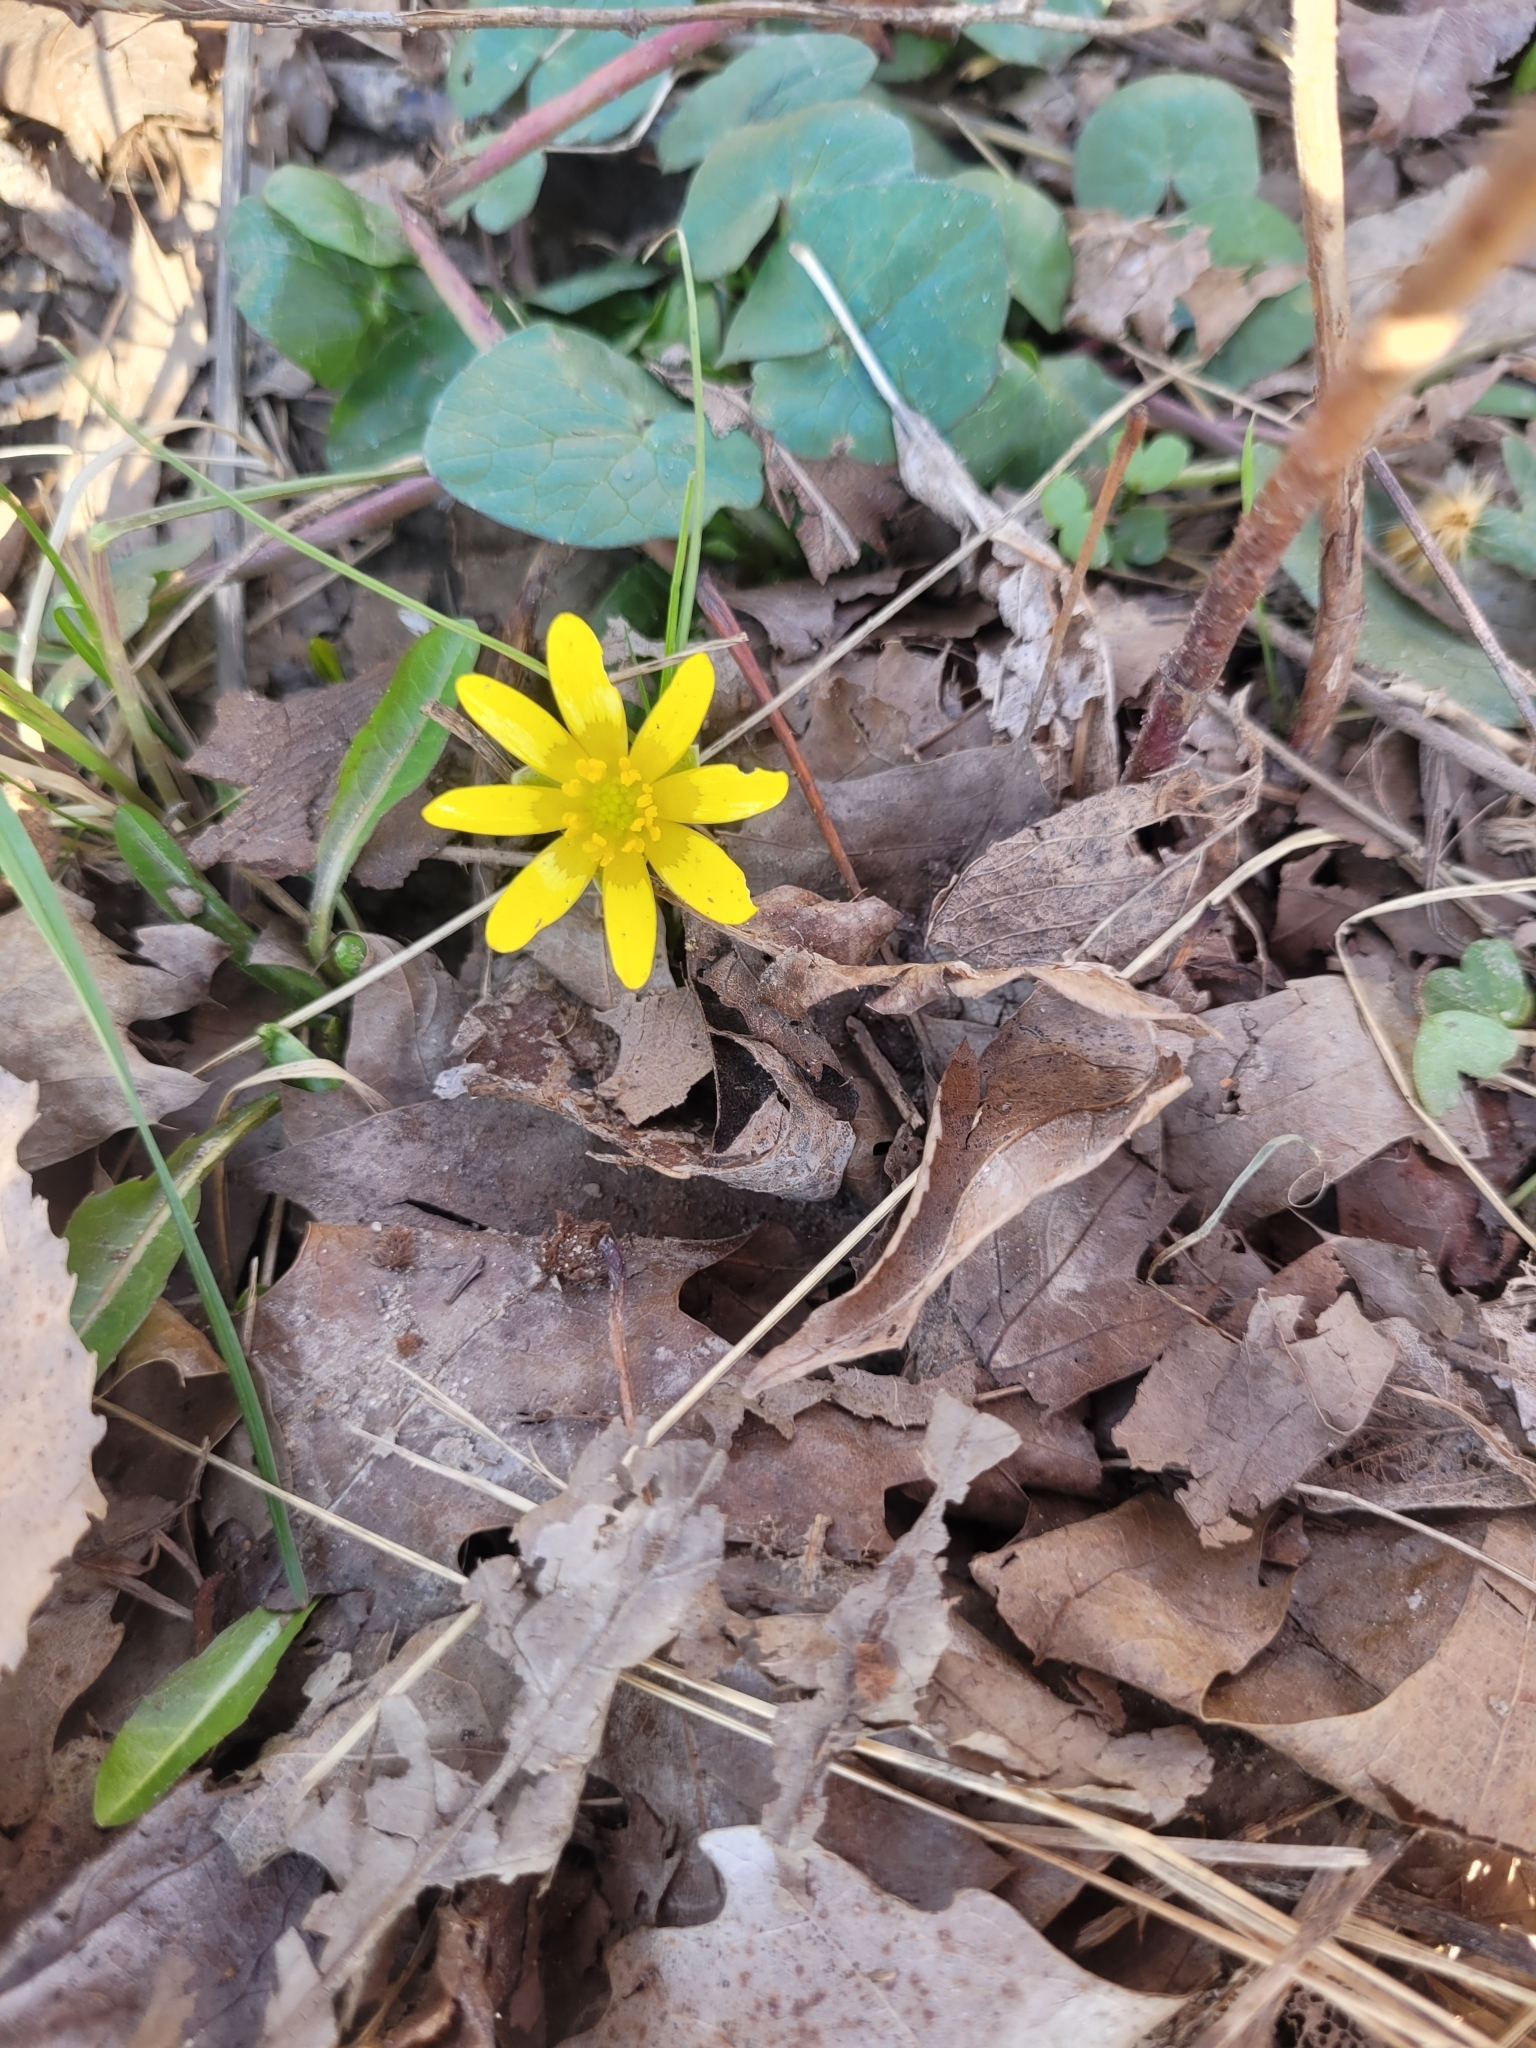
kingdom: Plantae
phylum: Tracheophyta
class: Magnoliopsida
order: Ranunculales
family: Ranunculaceae
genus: Ficaria
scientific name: Ficaria verna
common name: Lesser celandine
